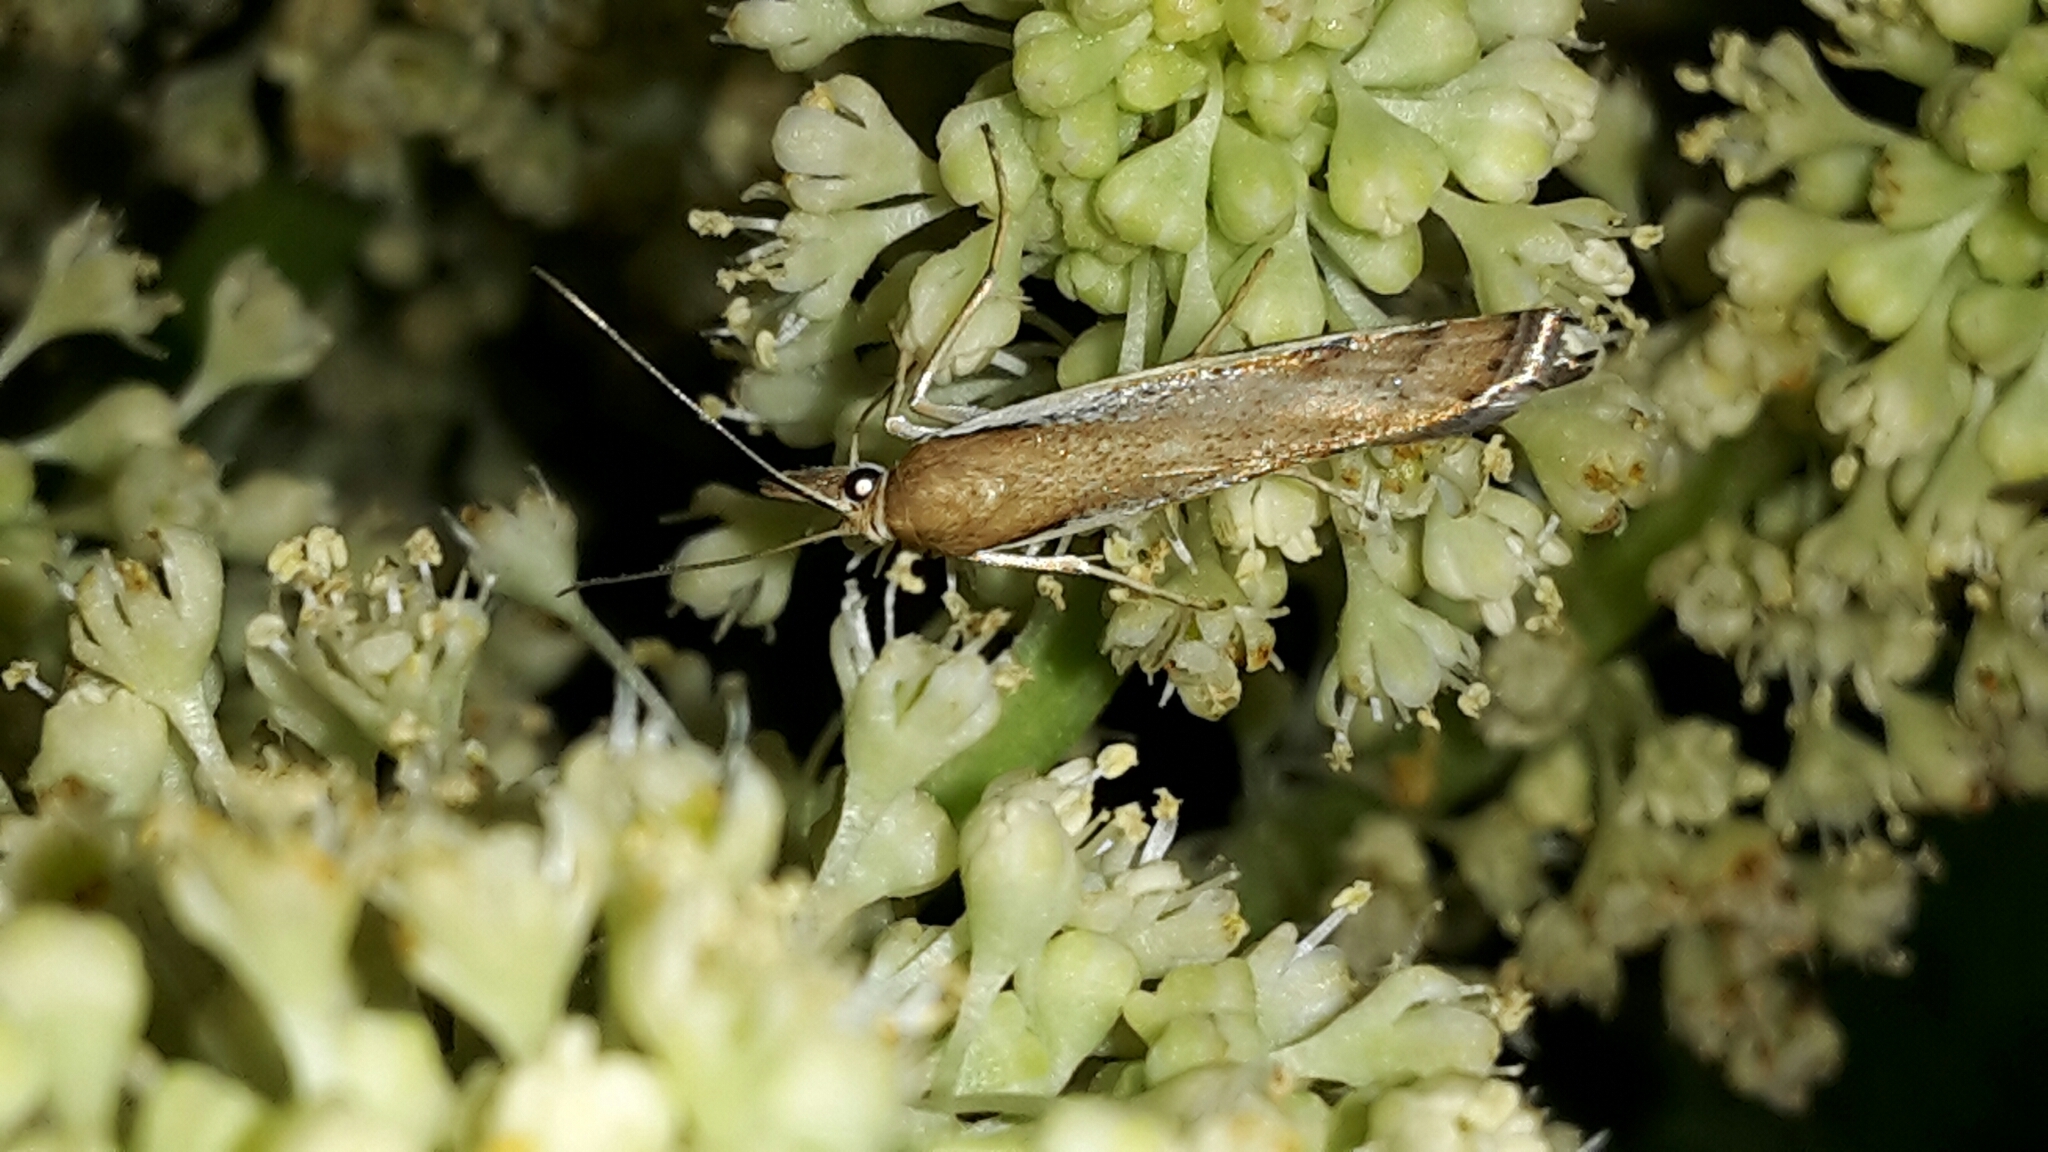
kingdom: Animalia
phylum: Arthropoda
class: Insecta
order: Lepidoptera
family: Crambidae
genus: Orocrambus
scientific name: Orocrambus flexuosellus
